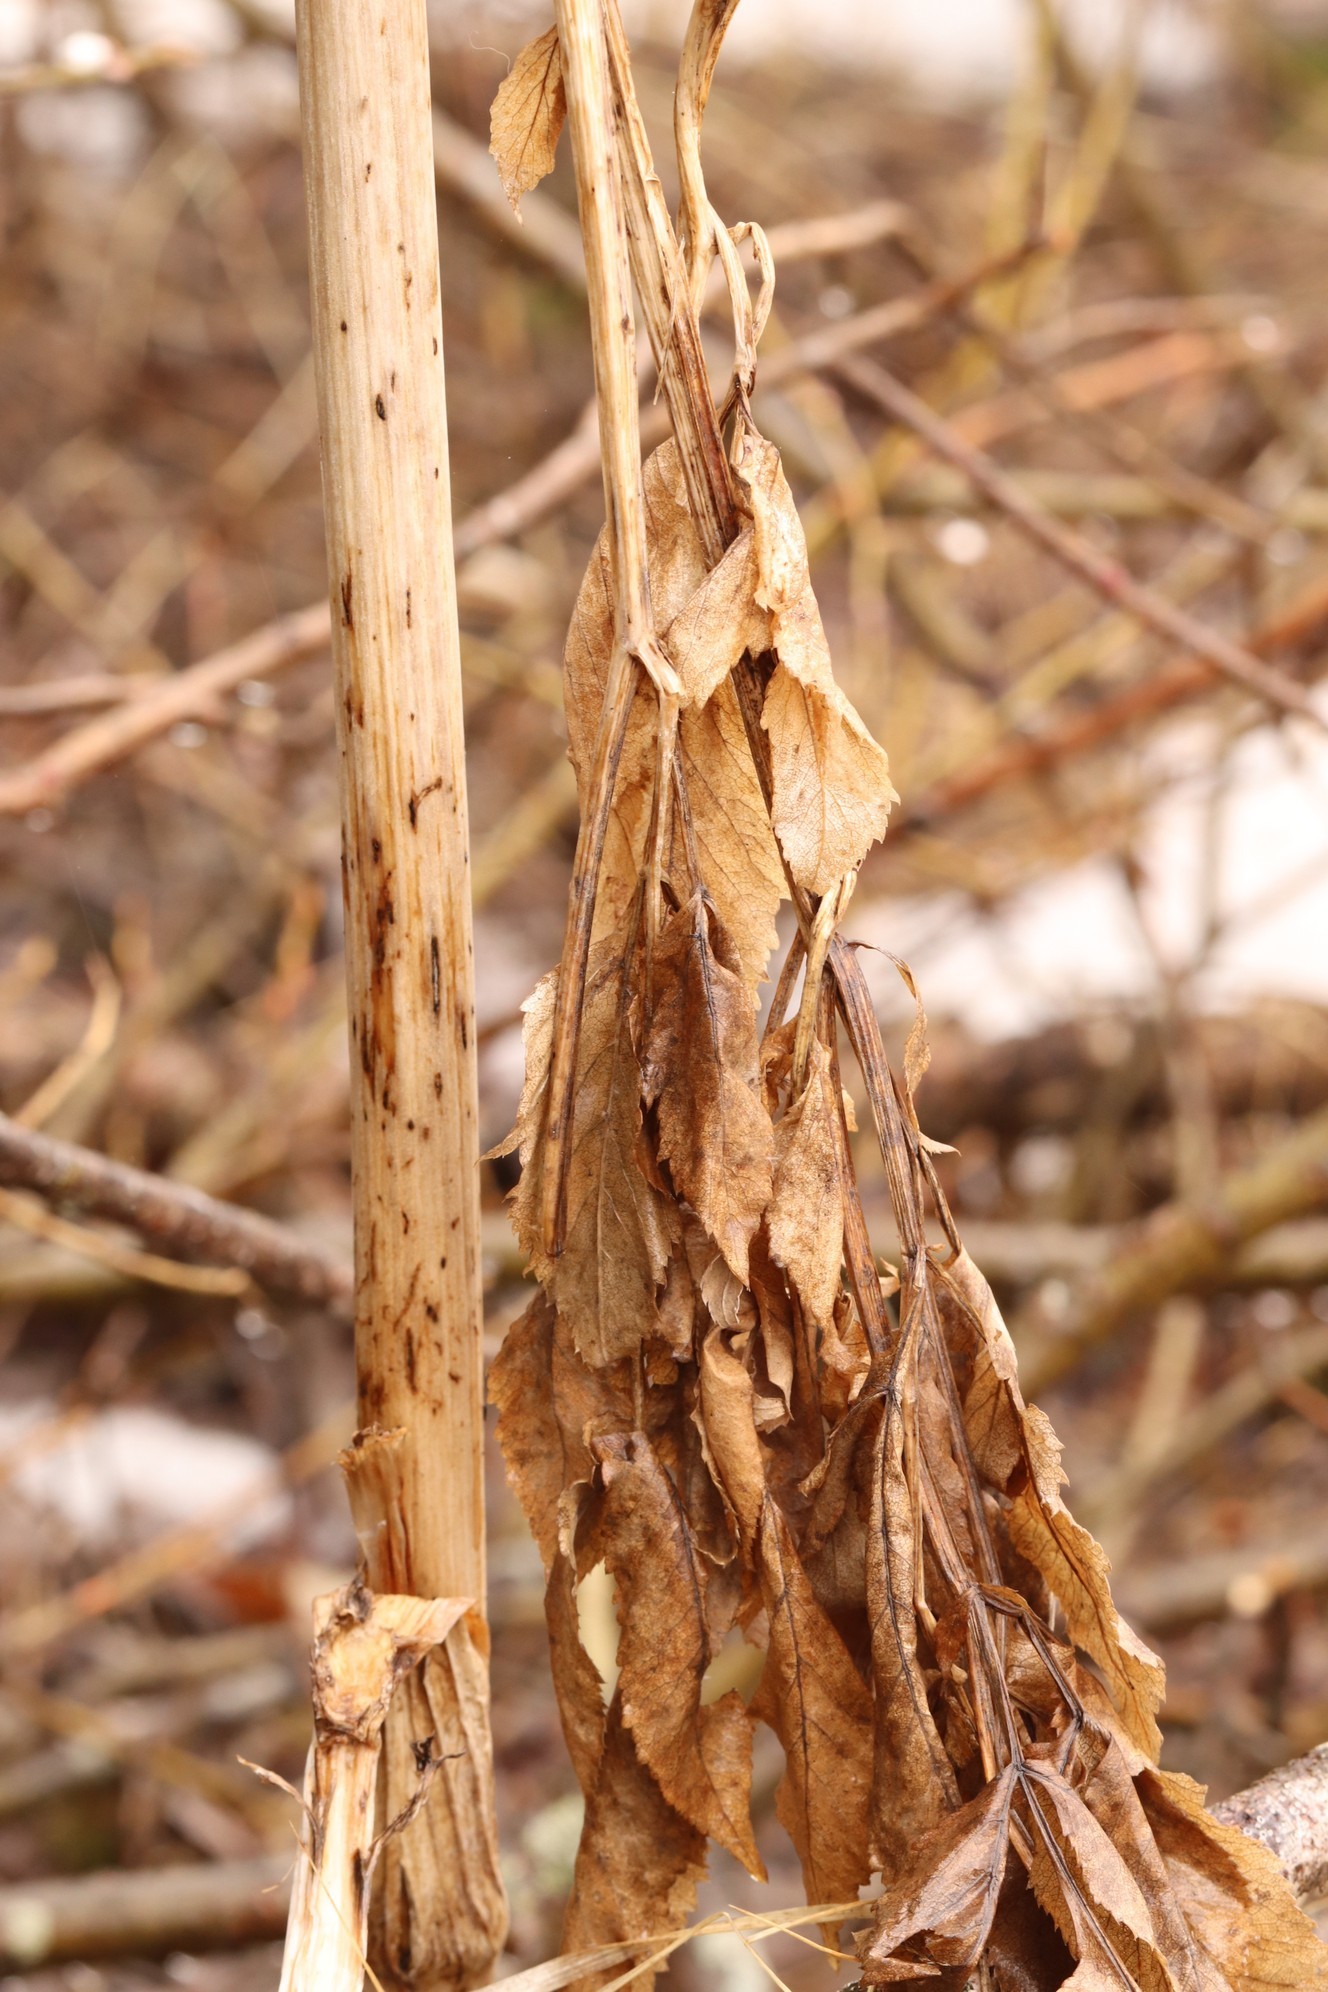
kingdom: Plantae
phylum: Tracheophyta
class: Magnoliopsida
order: Apiales
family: Apiaceae
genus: Angelica
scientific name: Angelica decurrens
